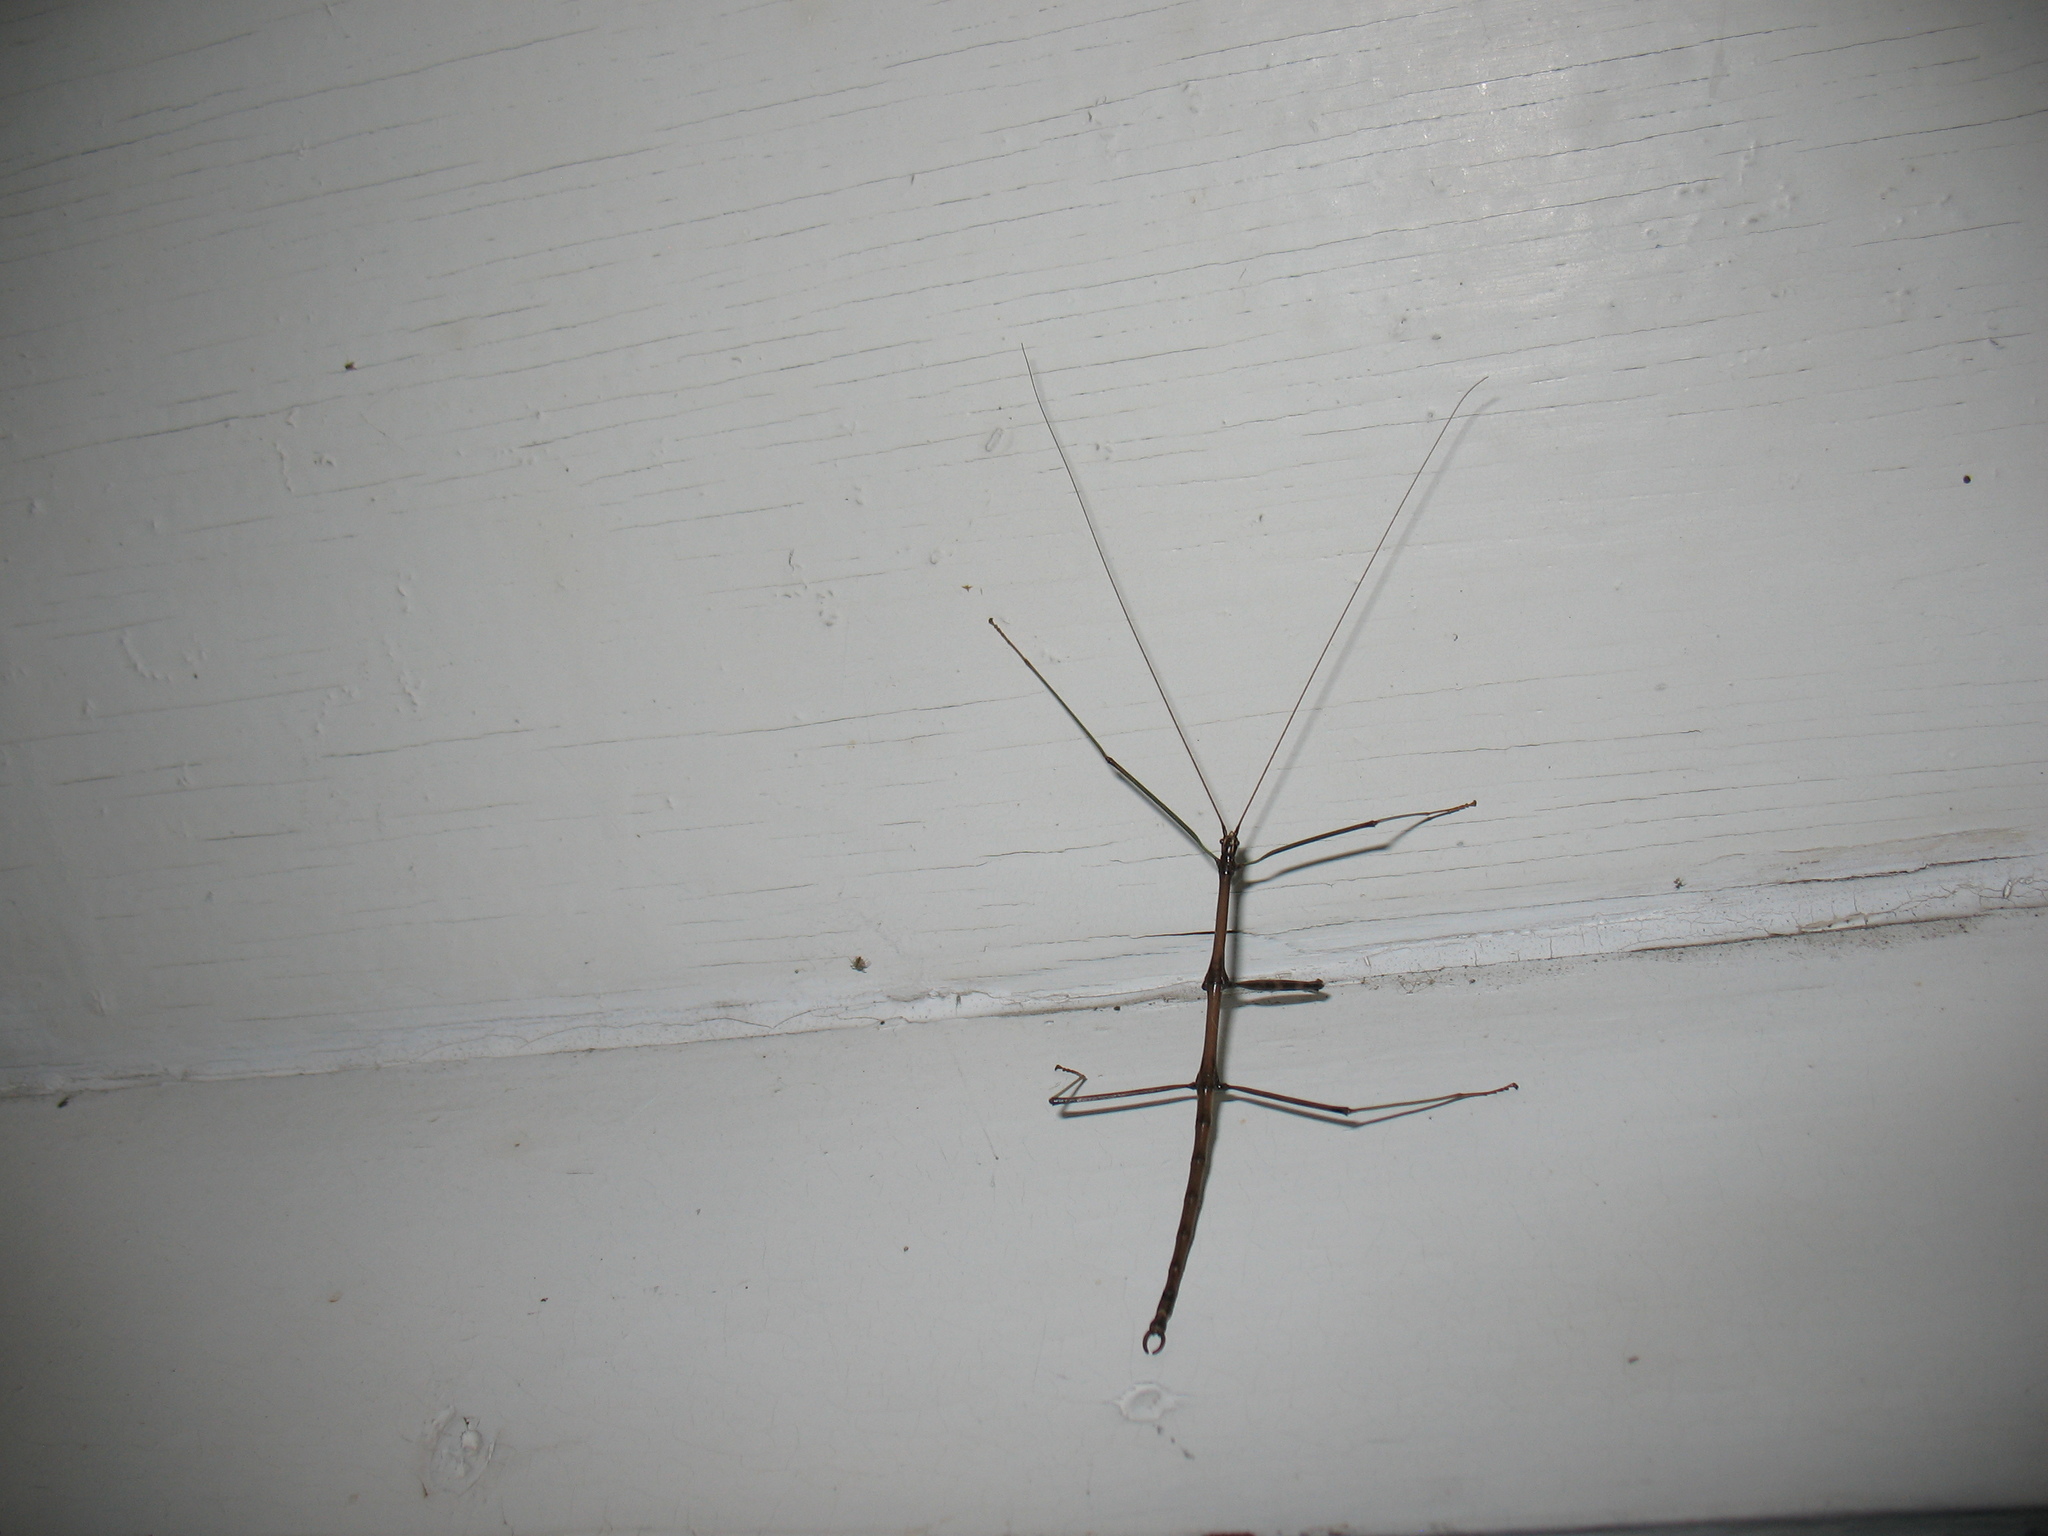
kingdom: Animalia
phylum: Arthropoda
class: Insecta
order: Phasmida
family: Diapheromeridae
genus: Diapheromera
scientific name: Diapheromera femorata
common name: Common american walkingstick
